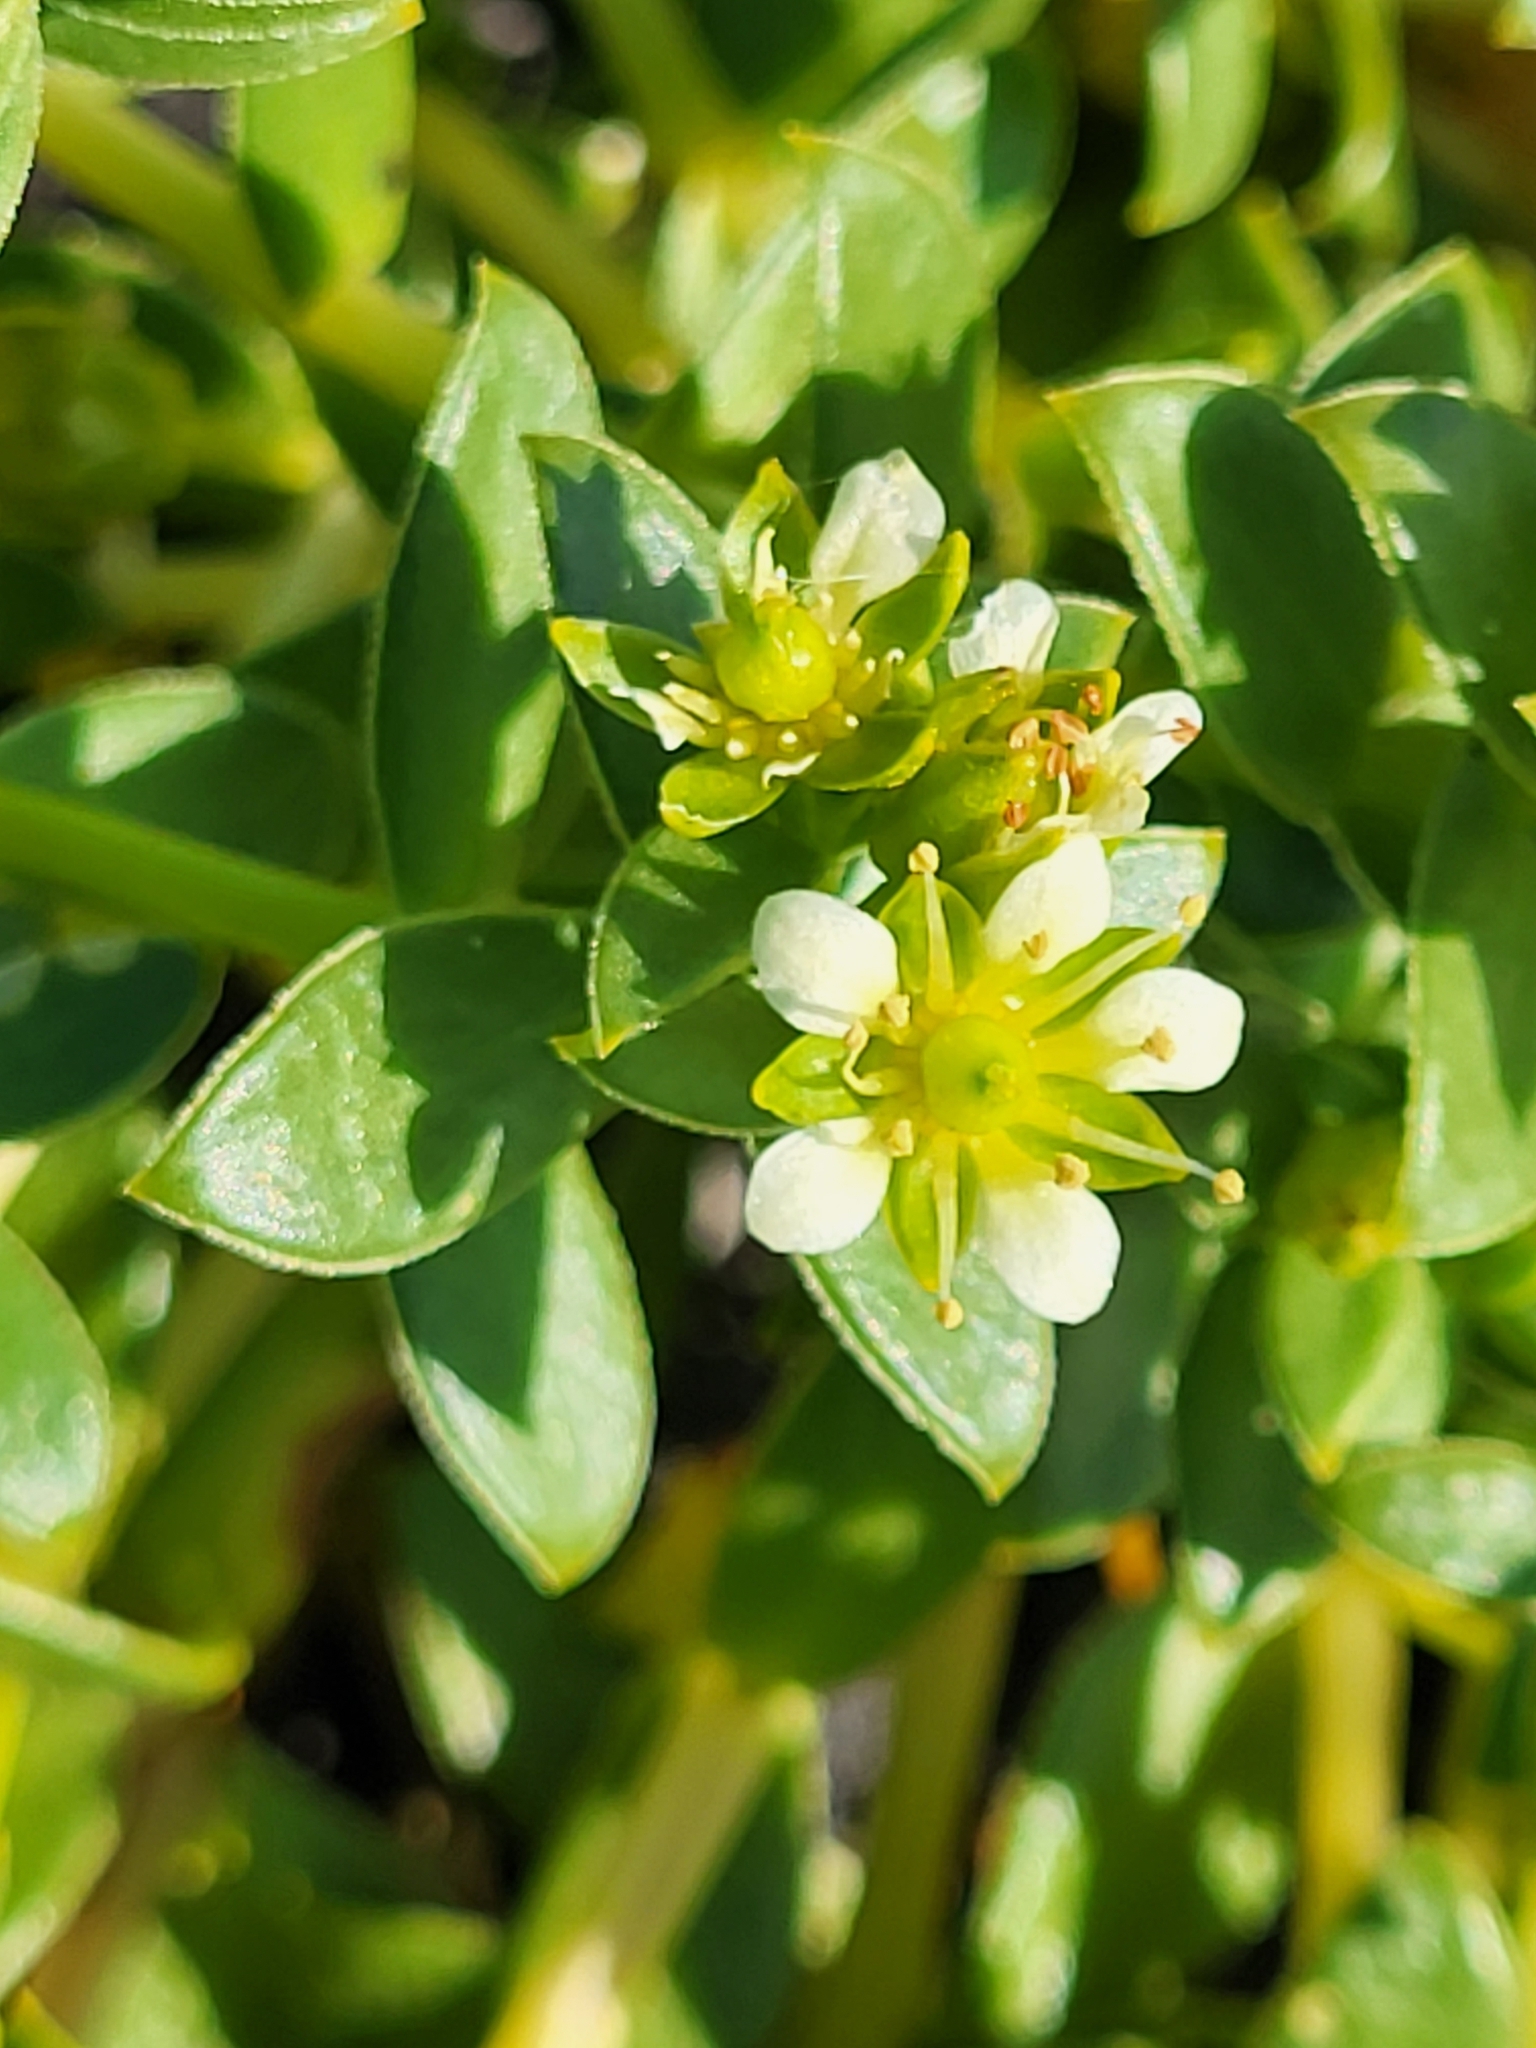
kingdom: Plantae
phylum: Tracheophyta
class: Magnoliopsida
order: Caryophyllales
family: Caryophyllaceae
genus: Honckenya
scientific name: Honckenya peploides
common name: Sea sandwort
